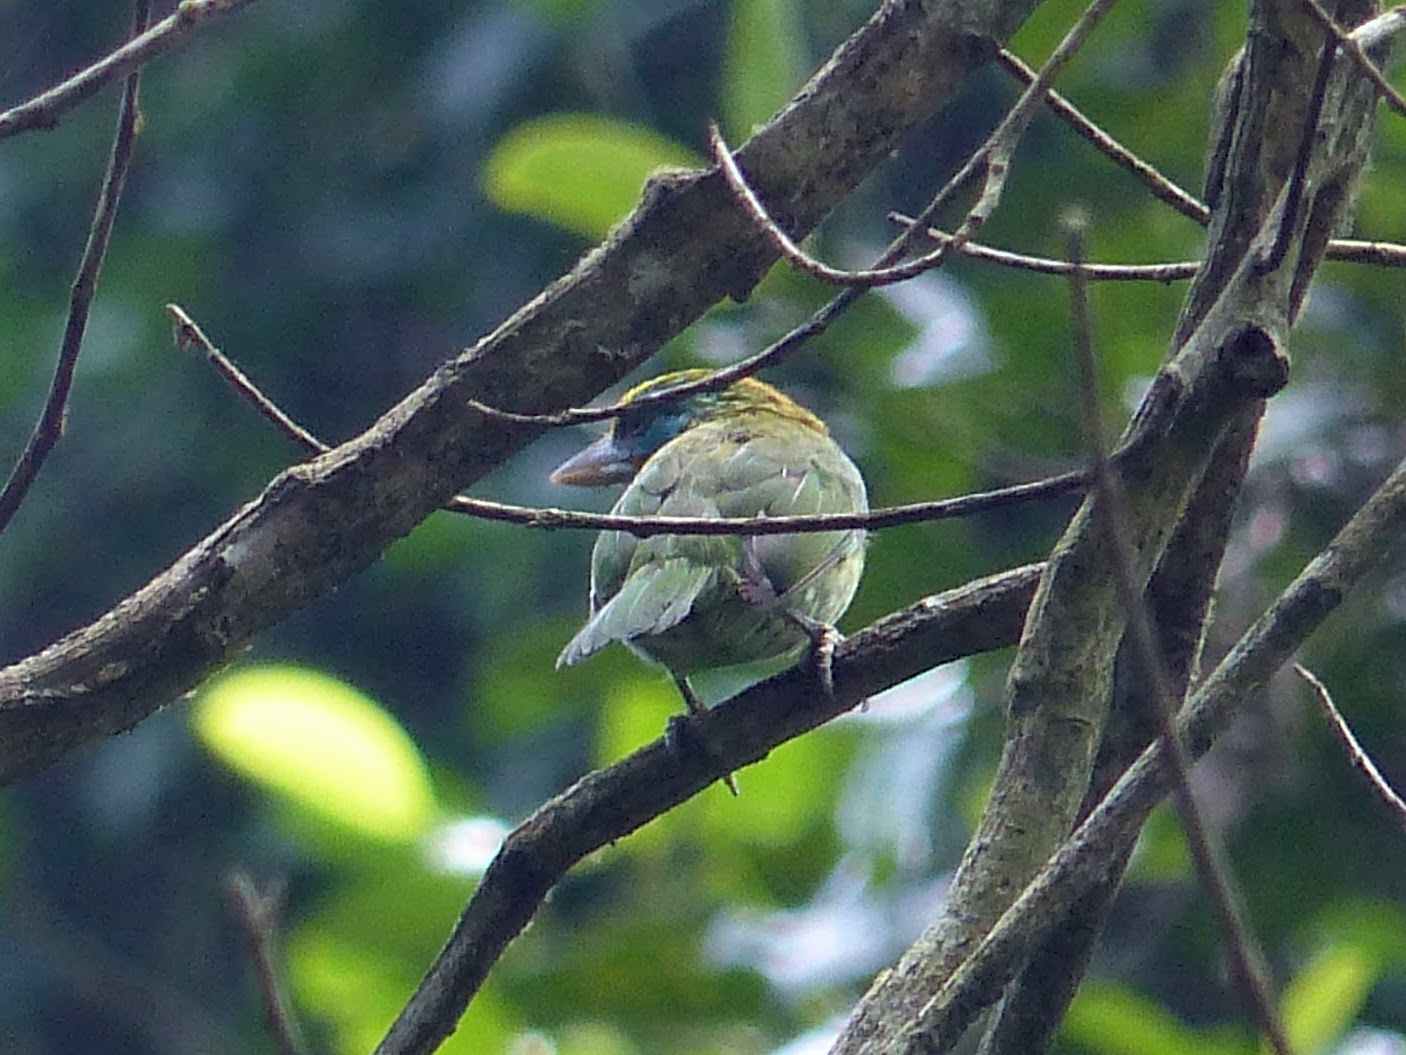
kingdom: Animalia
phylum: Chordata
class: Aves
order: Piciformes
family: Megalaimidae
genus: Psilopogon
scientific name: Psilopogon flavifrons
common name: Yellow-fronted barbet
